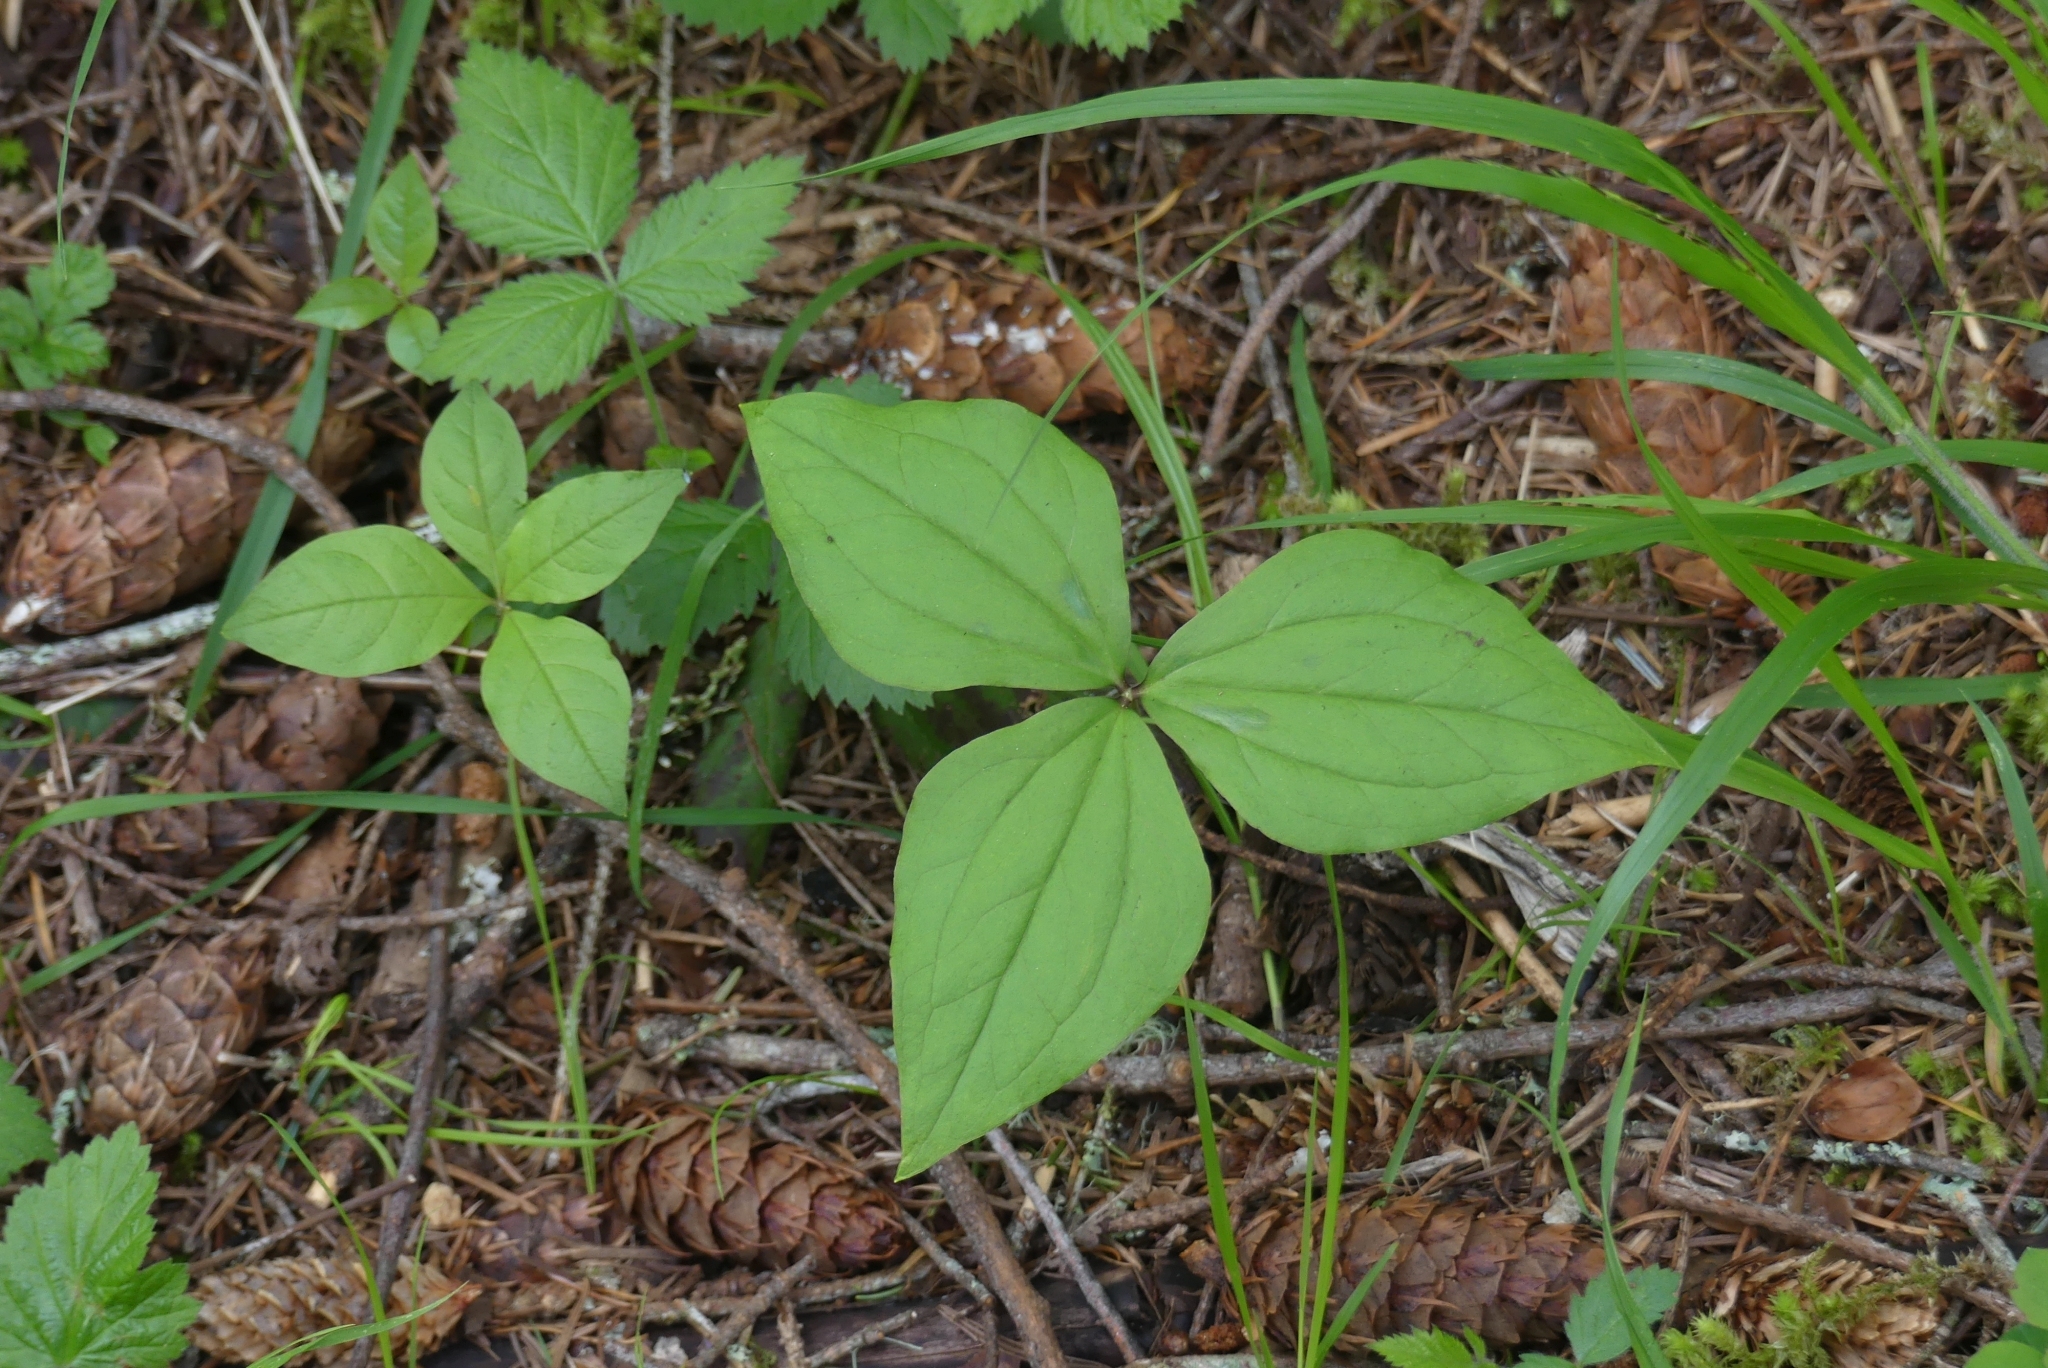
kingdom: Plantae
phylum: Tracheophyta
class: Liliopsida
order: Liliales
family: Melanthiaceae
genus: Trillium
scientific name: Trillium ovatum
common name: Pacific trillium
